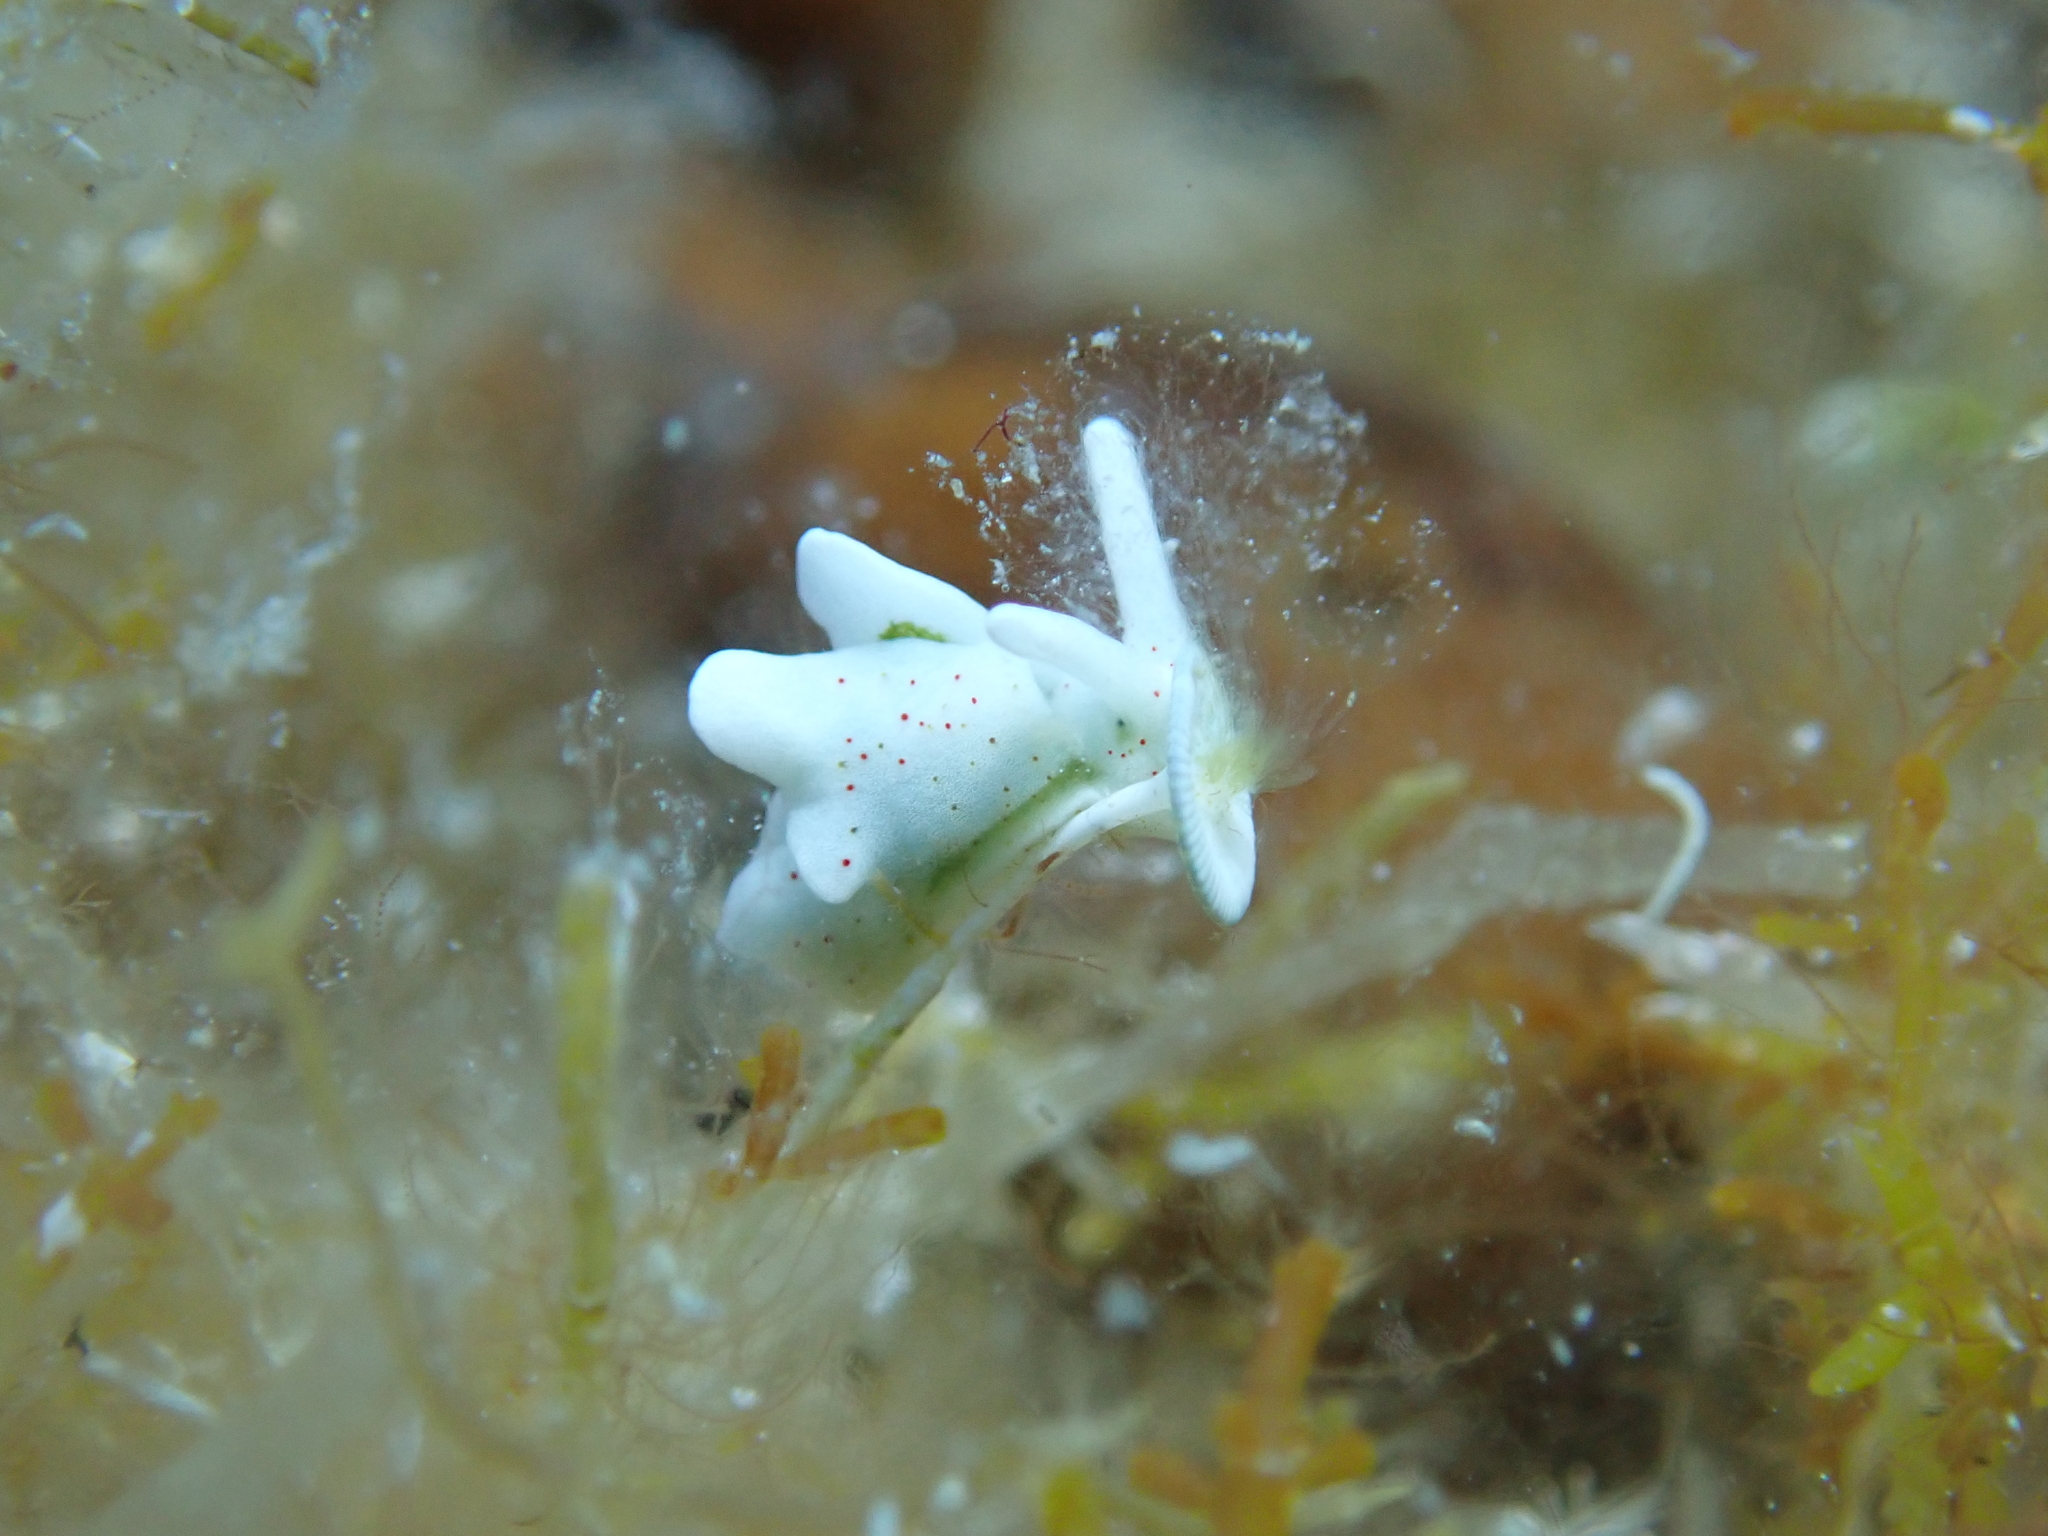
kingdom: Animalia
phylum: Mollusca
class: Gastropoda
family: Plakobranchidae
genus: Elysia
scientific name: Elysia timida
